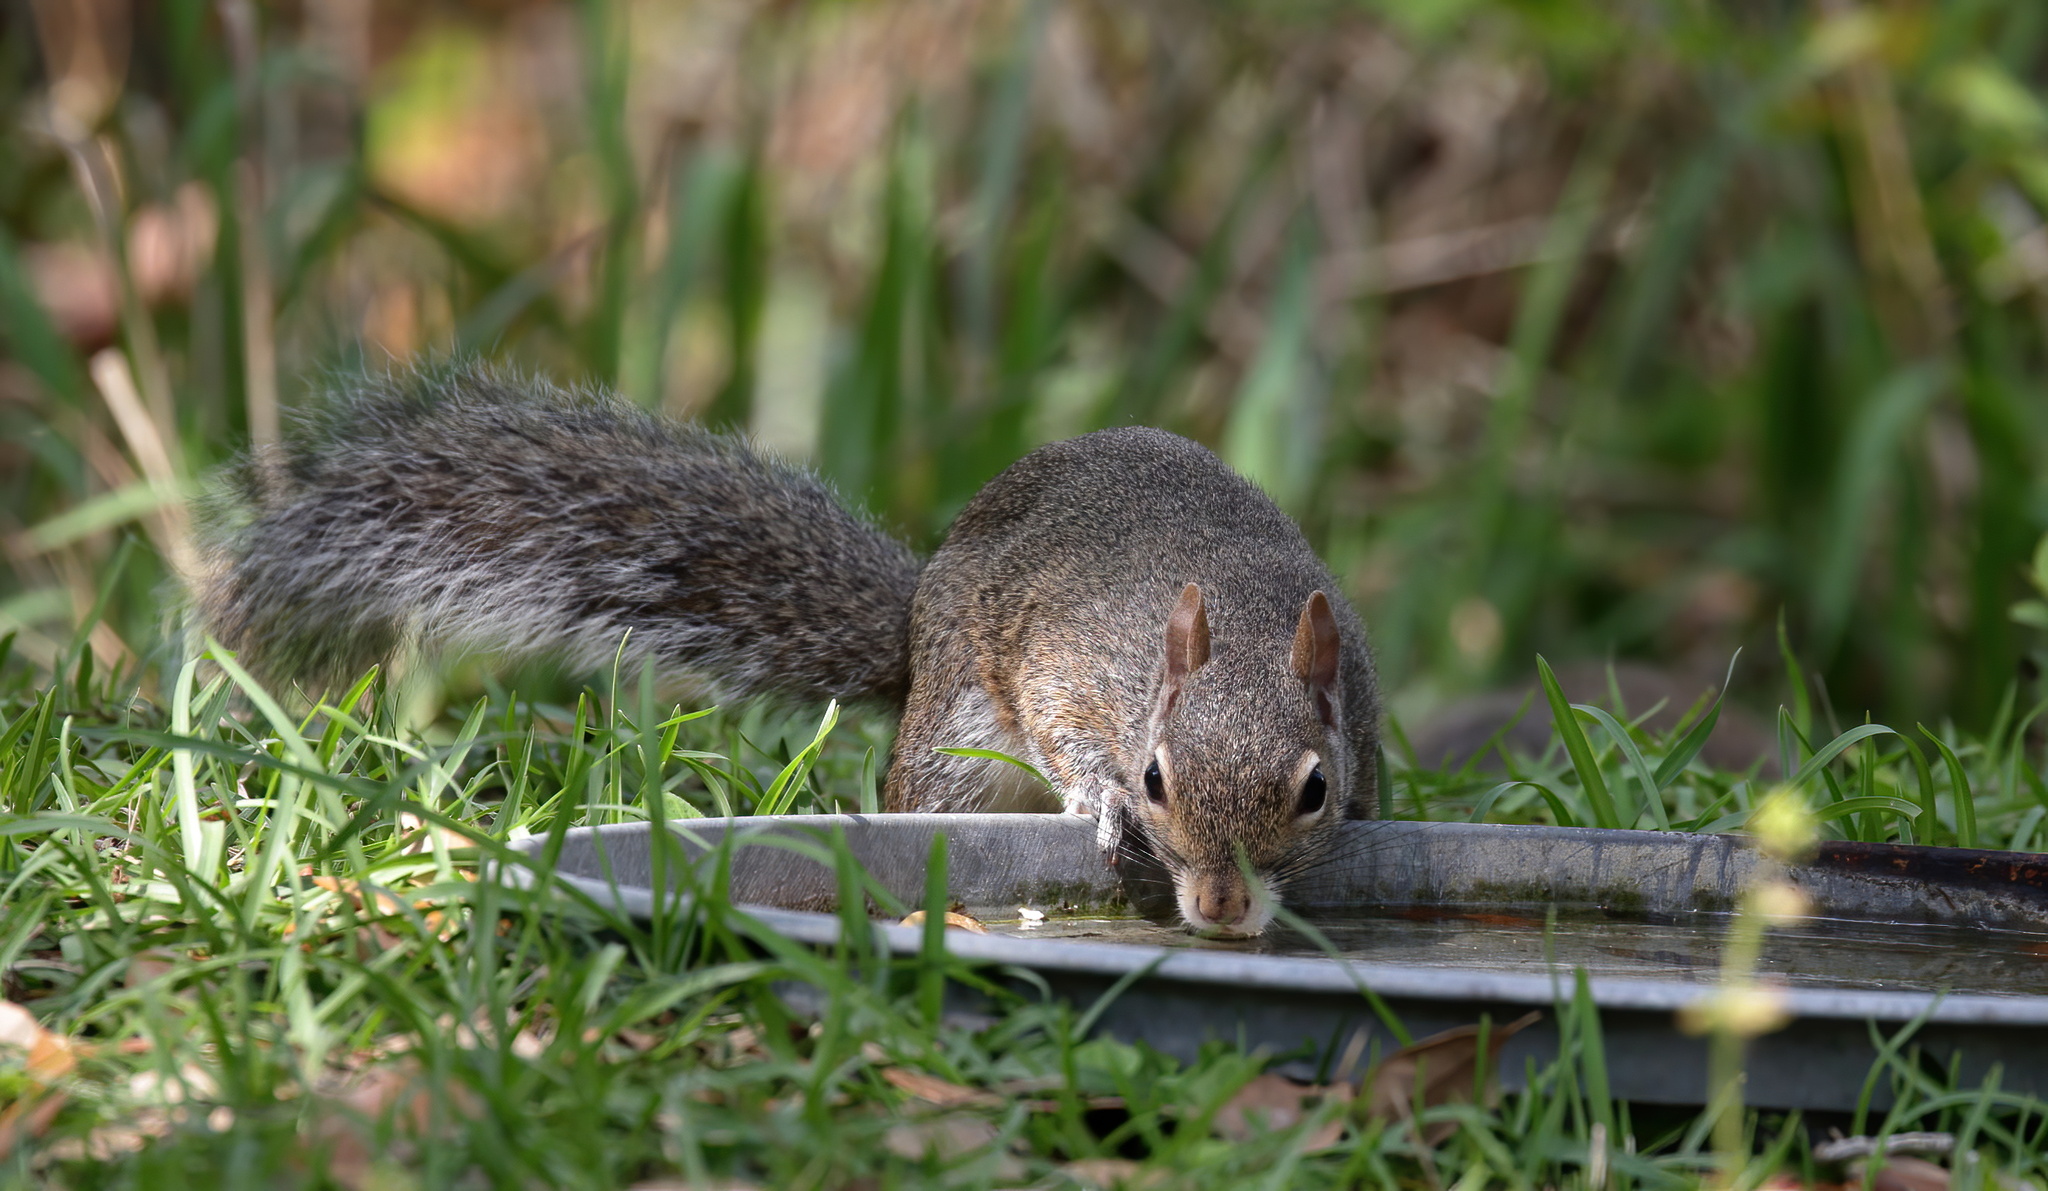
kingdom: Animalia
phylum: Chordata
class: Mammalia
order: Rodentia
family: Sciuridae
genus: Sciurus
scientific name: Sciurus carolinensis
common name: Eastern gray squirrel
